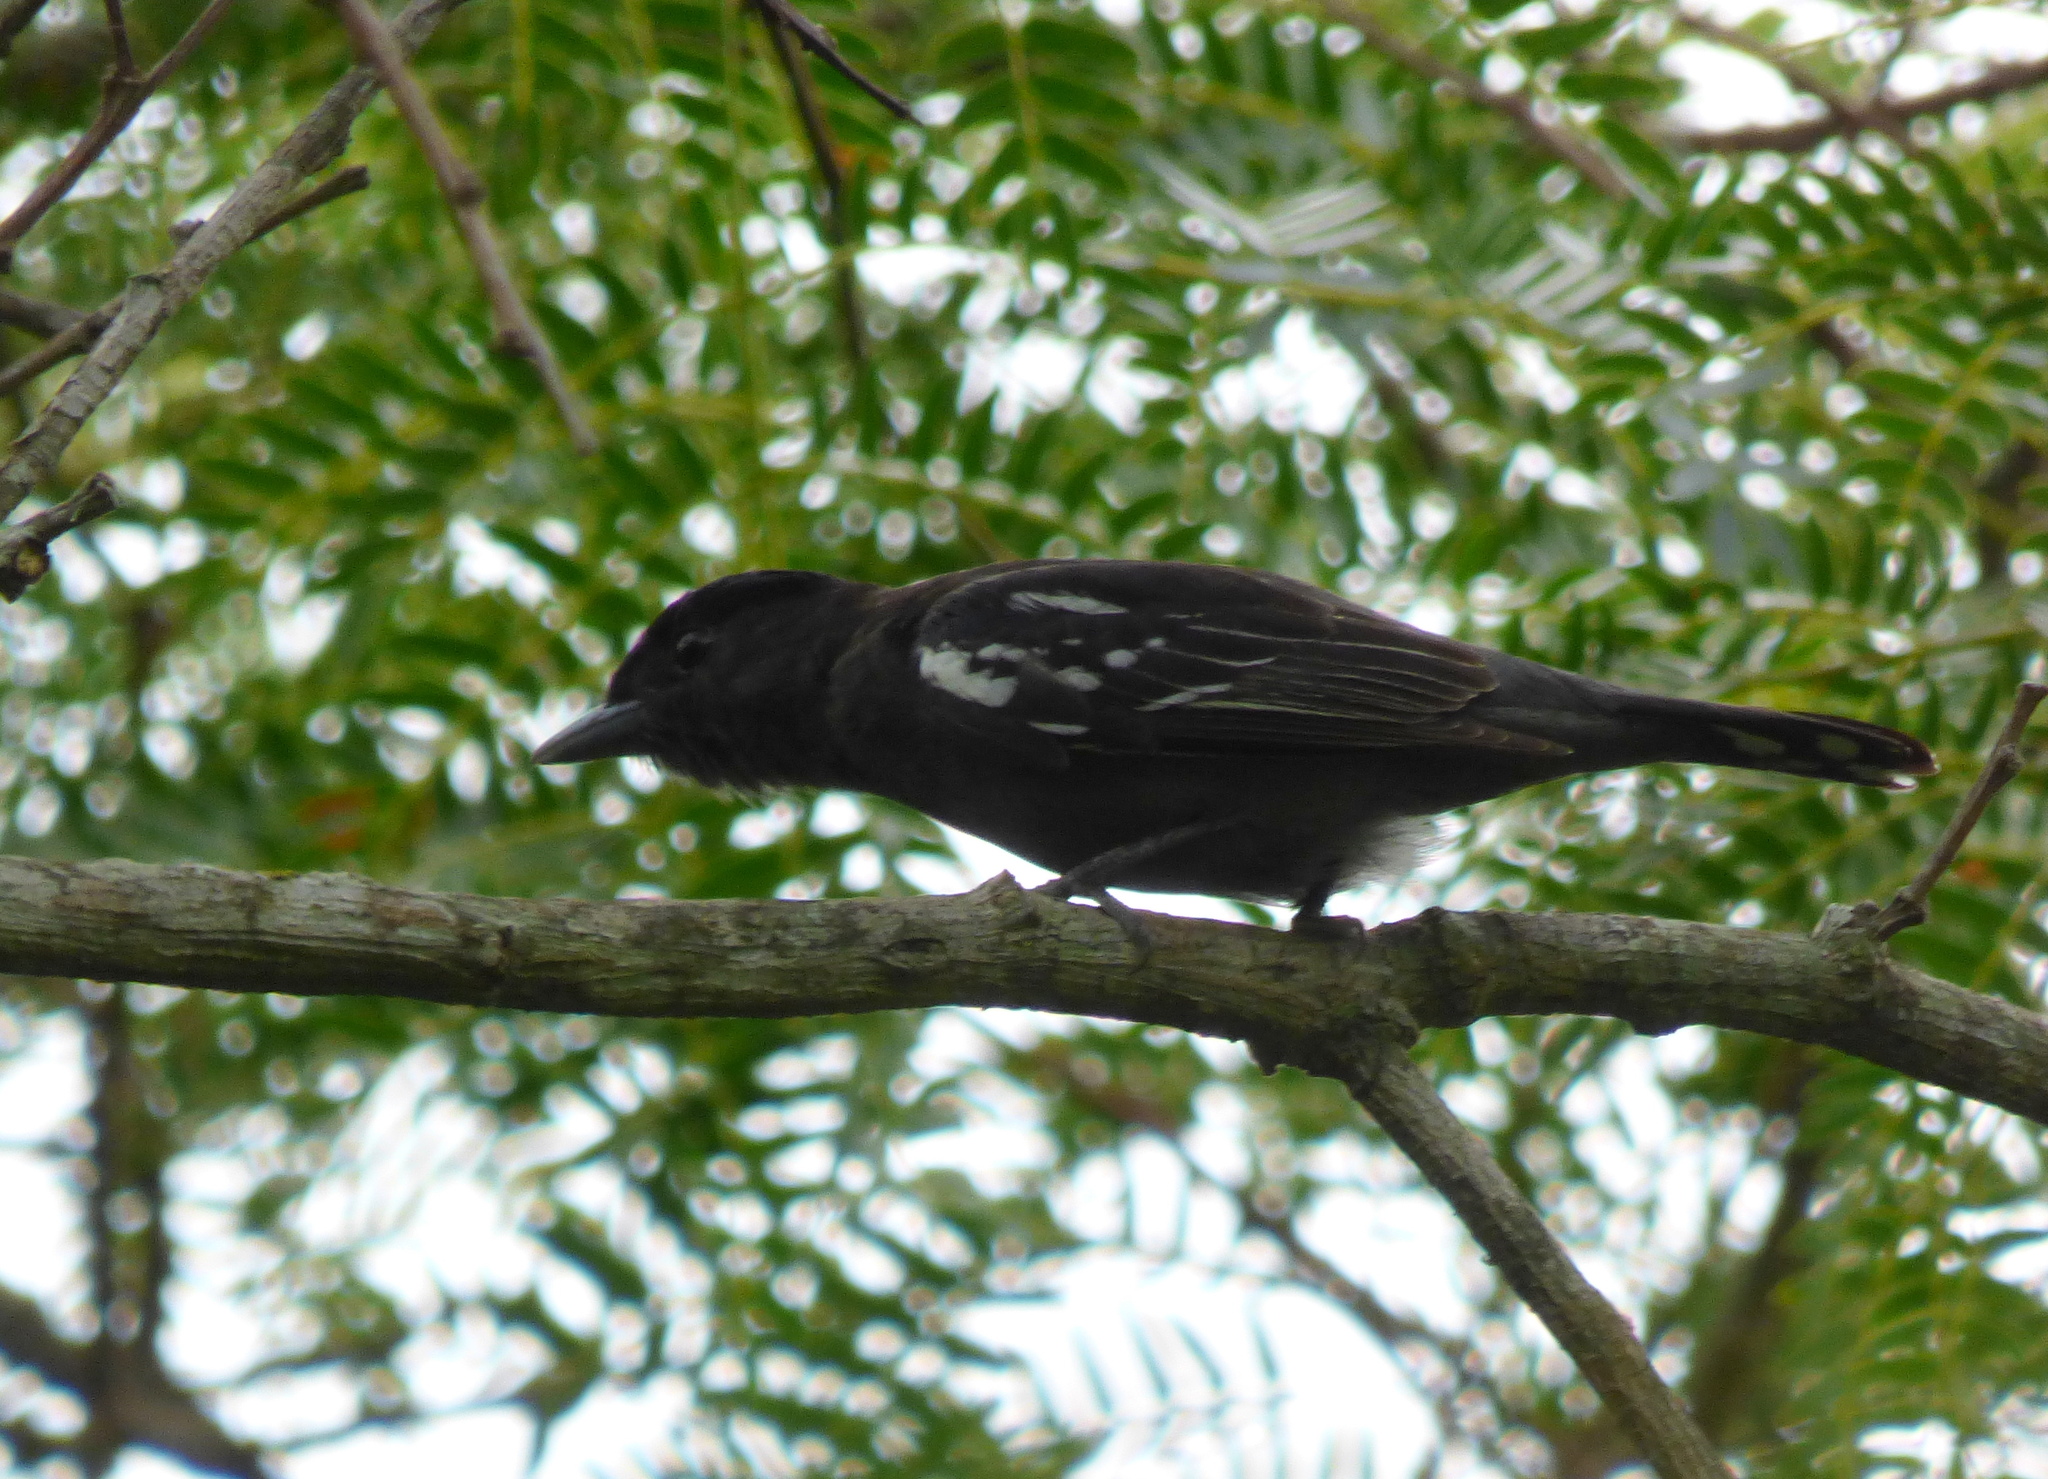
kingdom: Animalia
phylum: Chordata
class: Aves
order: Passeriformes
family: Cotingidae
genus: Pachyramphus
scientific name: Pachyramphus polychopterus
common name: White-winged becard
